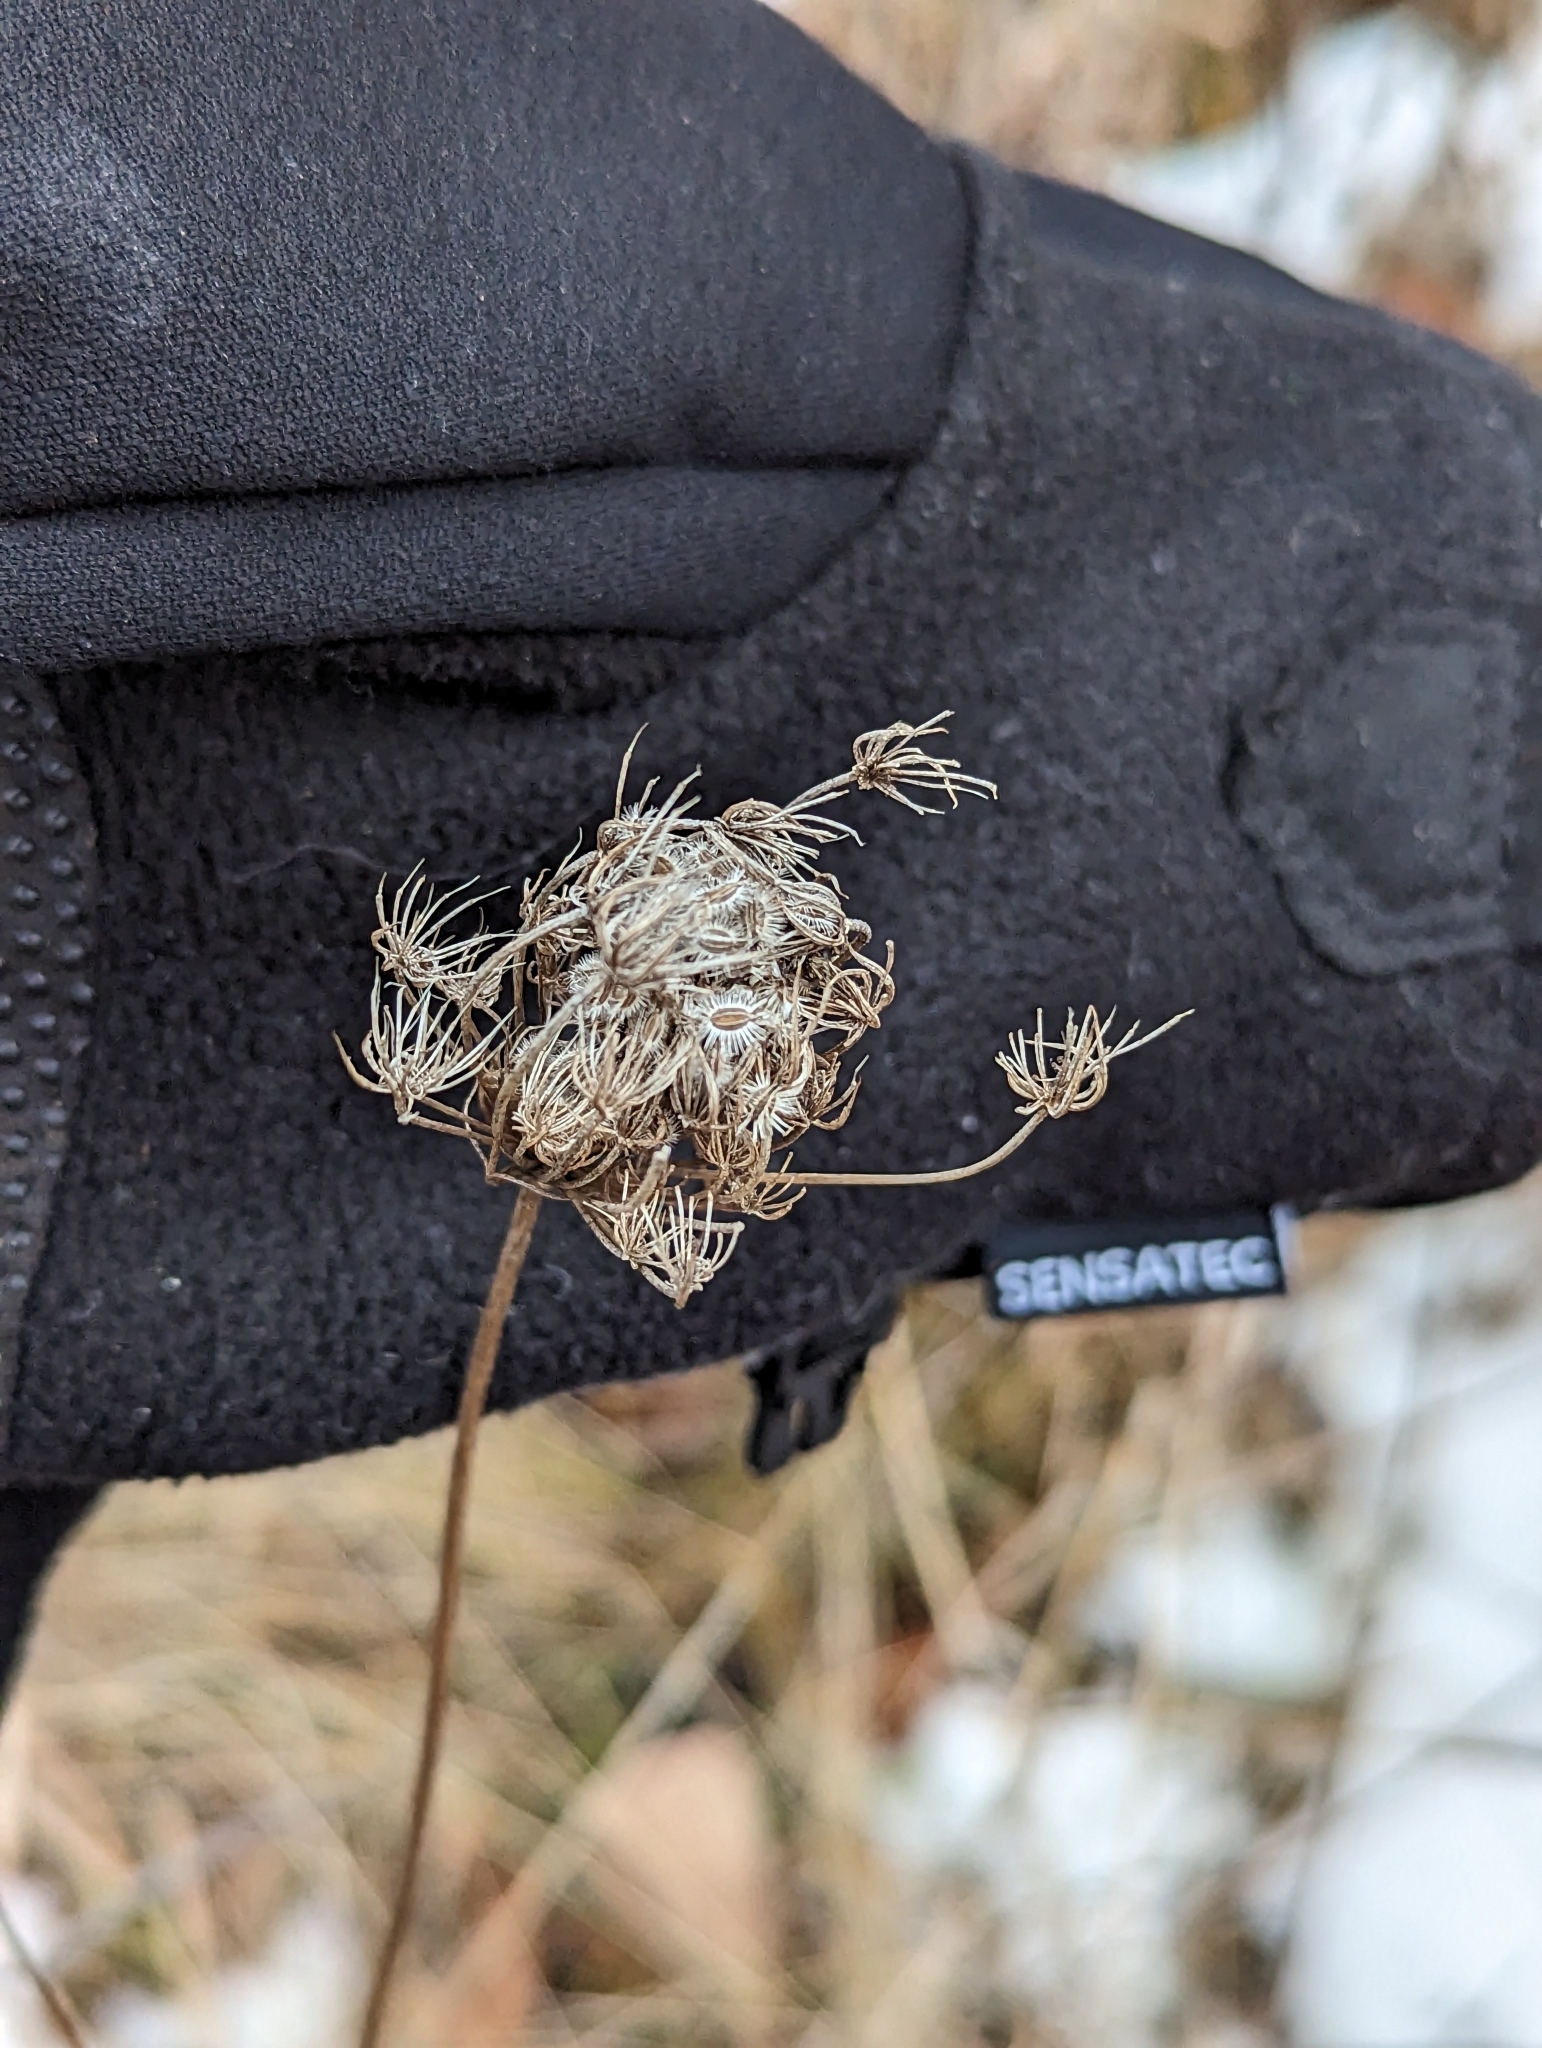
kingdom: Plantae
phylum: Tracheophyta
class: Magnoliopsida
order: Apiales
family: Apiaceae
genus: Daucus
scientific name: Daucus carota
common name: Wild carrot
